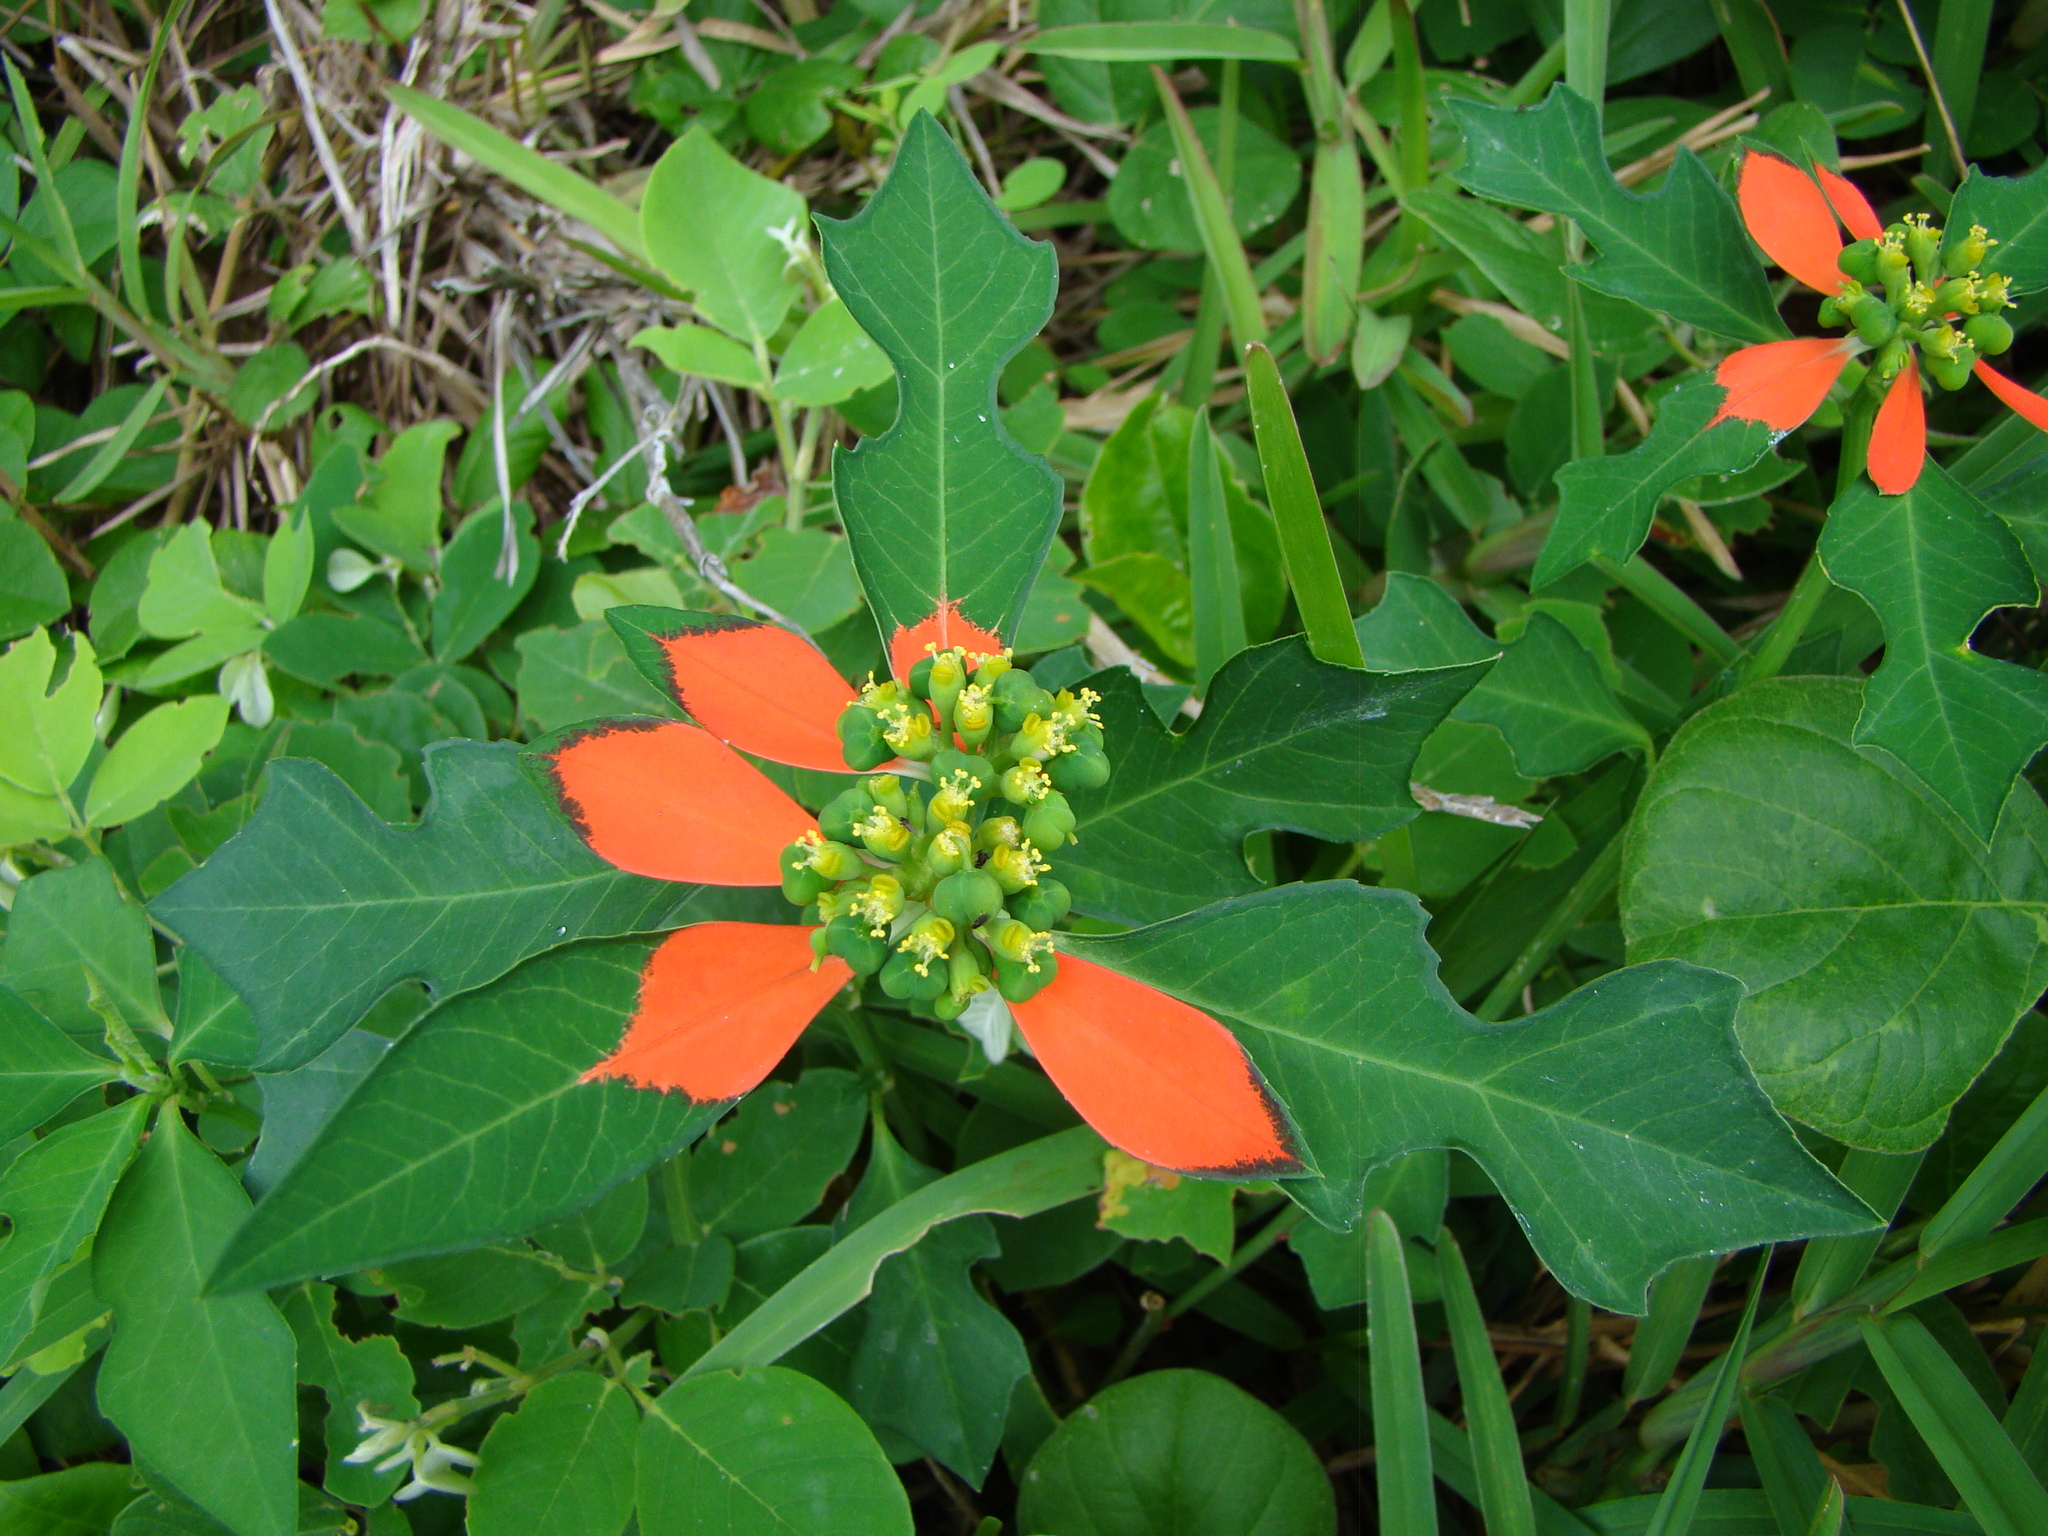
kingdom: Plantae
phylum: Tracheophyta
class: Magnoliopsida
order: Malpighiales
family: Euphorbiaceae
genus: Euphorbia
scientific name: Euphorbia heterophylla
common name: Mexican fireplant
